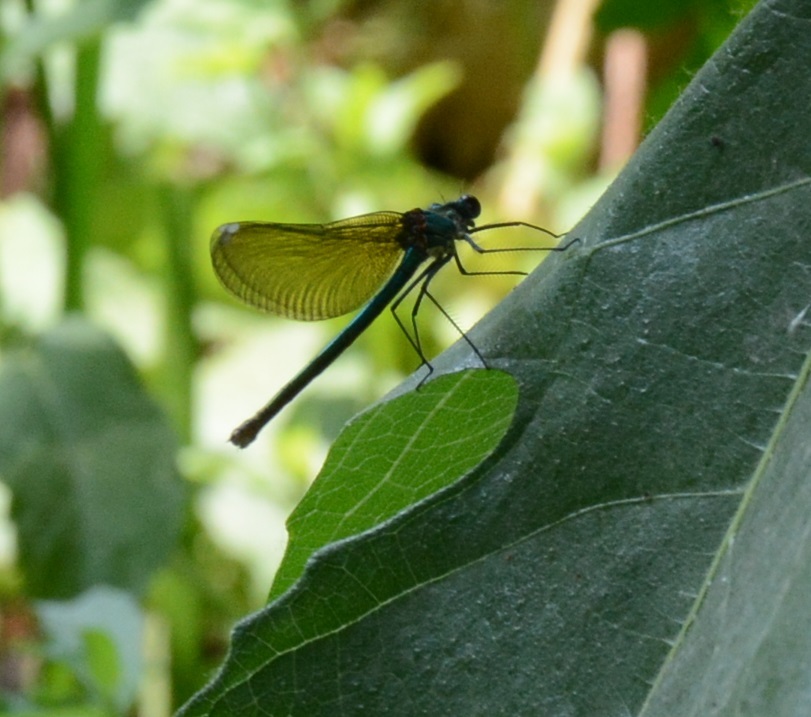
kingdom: Animalia
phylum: Arthropoda
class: Insecta
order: Odonata
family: Calopterygidae
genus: Calopteryx
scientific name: Calopteryx splendens
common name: Banded demoiselle
